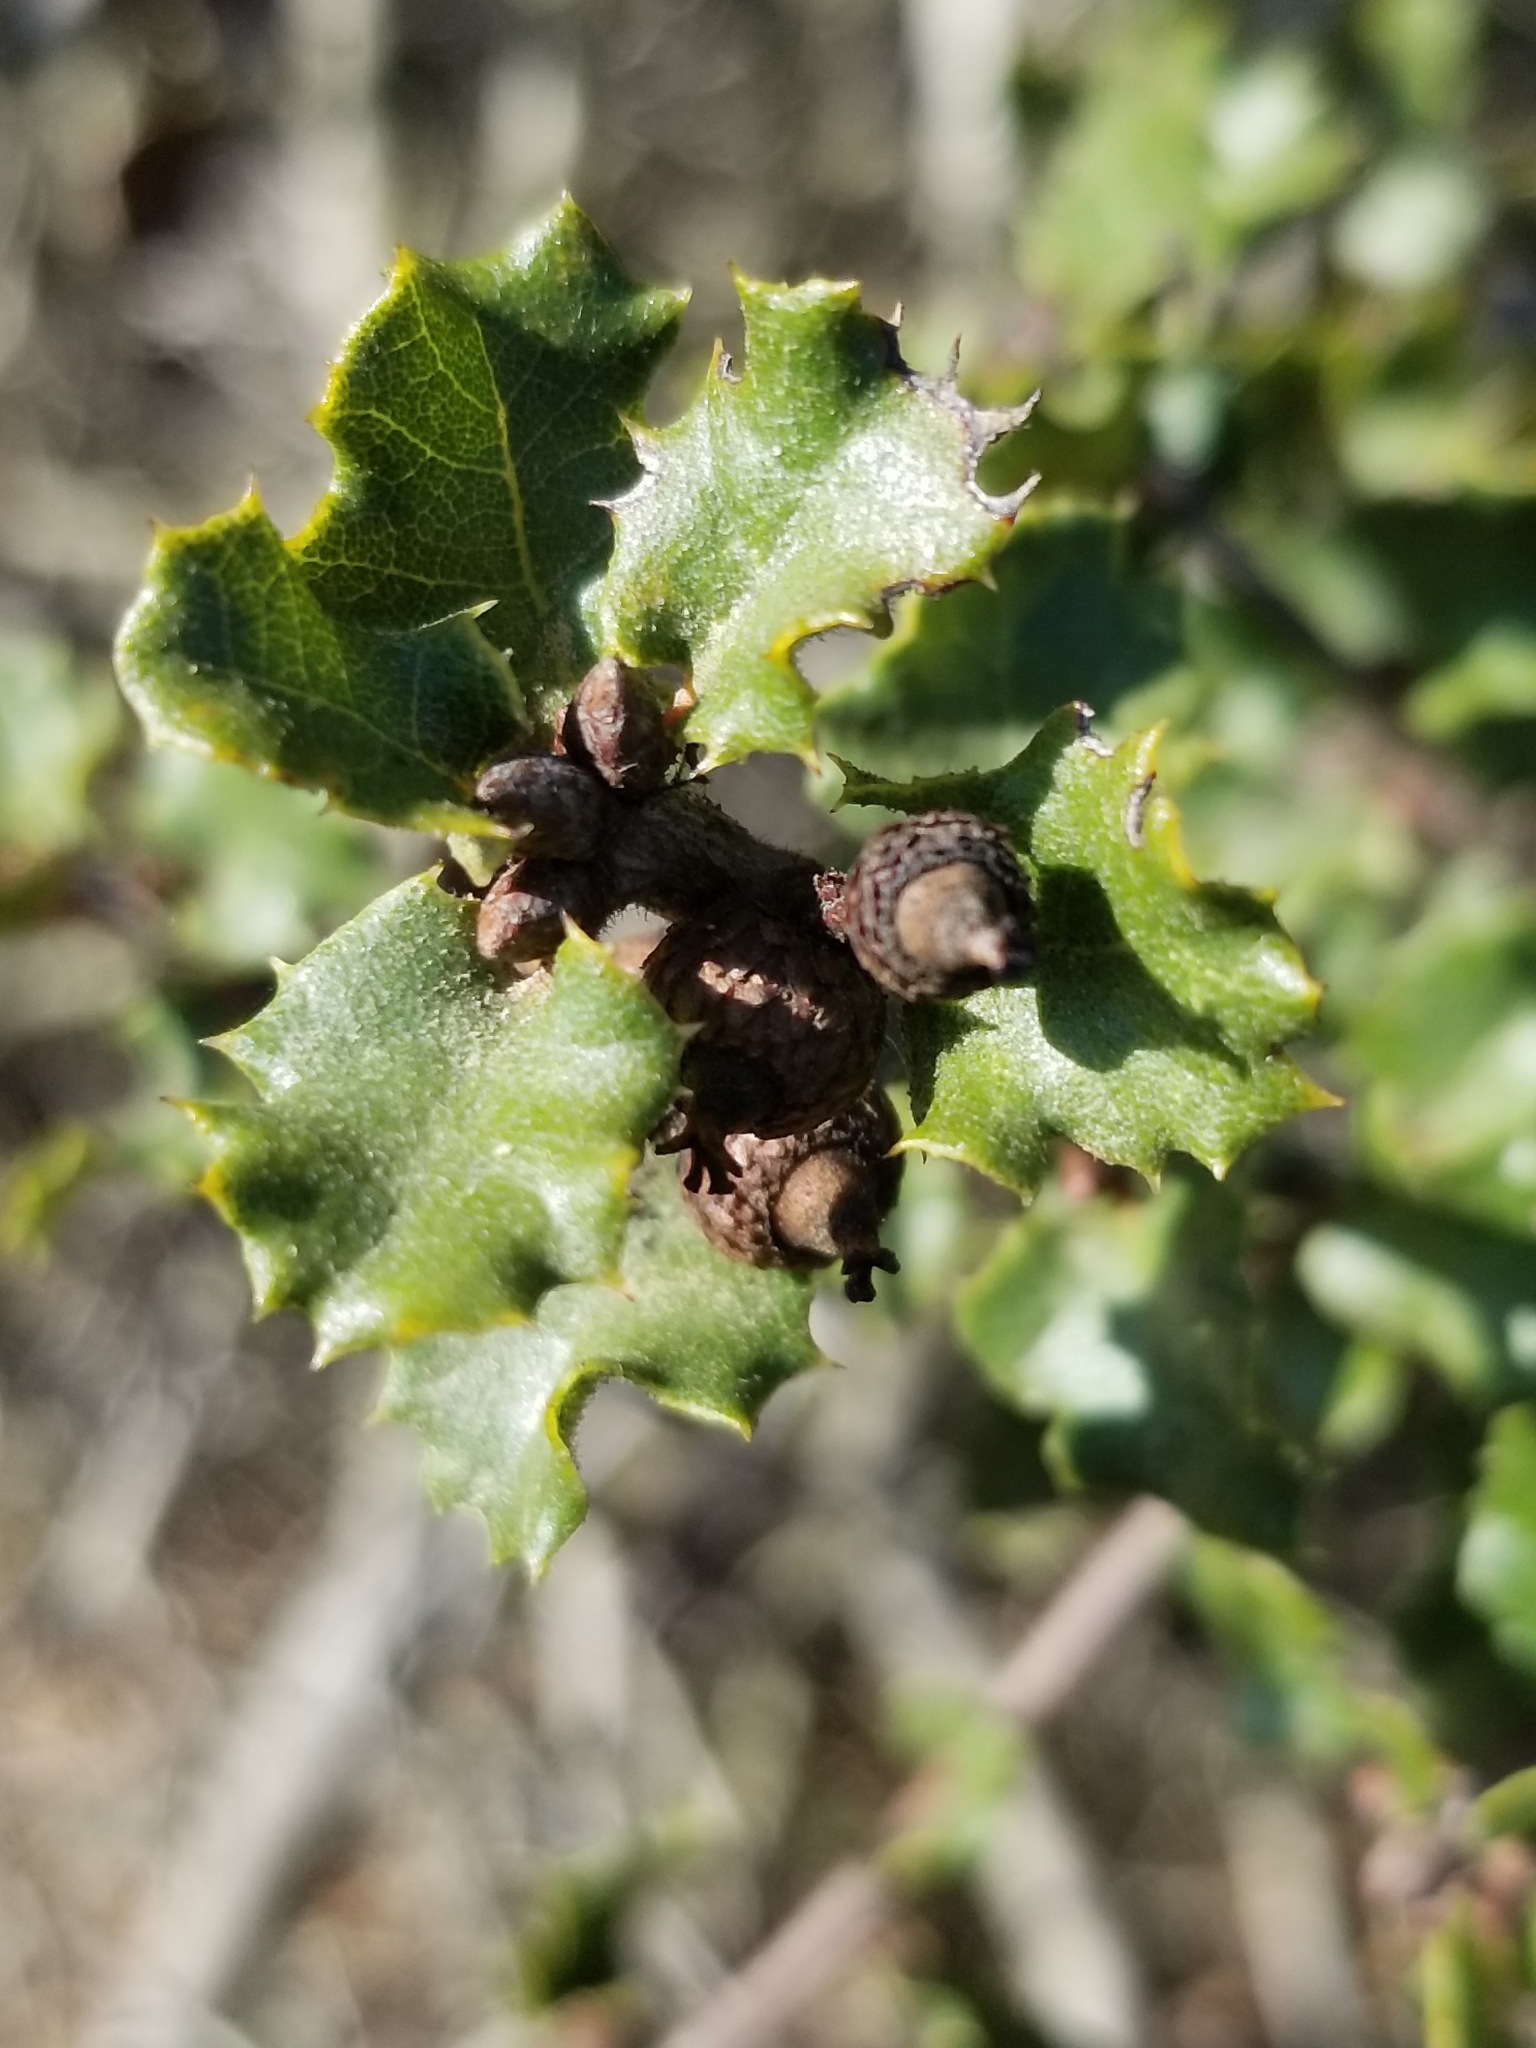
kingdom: Plantae
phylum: Tracheophyta
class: Magnoliopsida
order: Fagales
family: Fagaceae
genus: Quercus
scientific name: Quercus dumosa
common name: Coastal sage scrub oak
